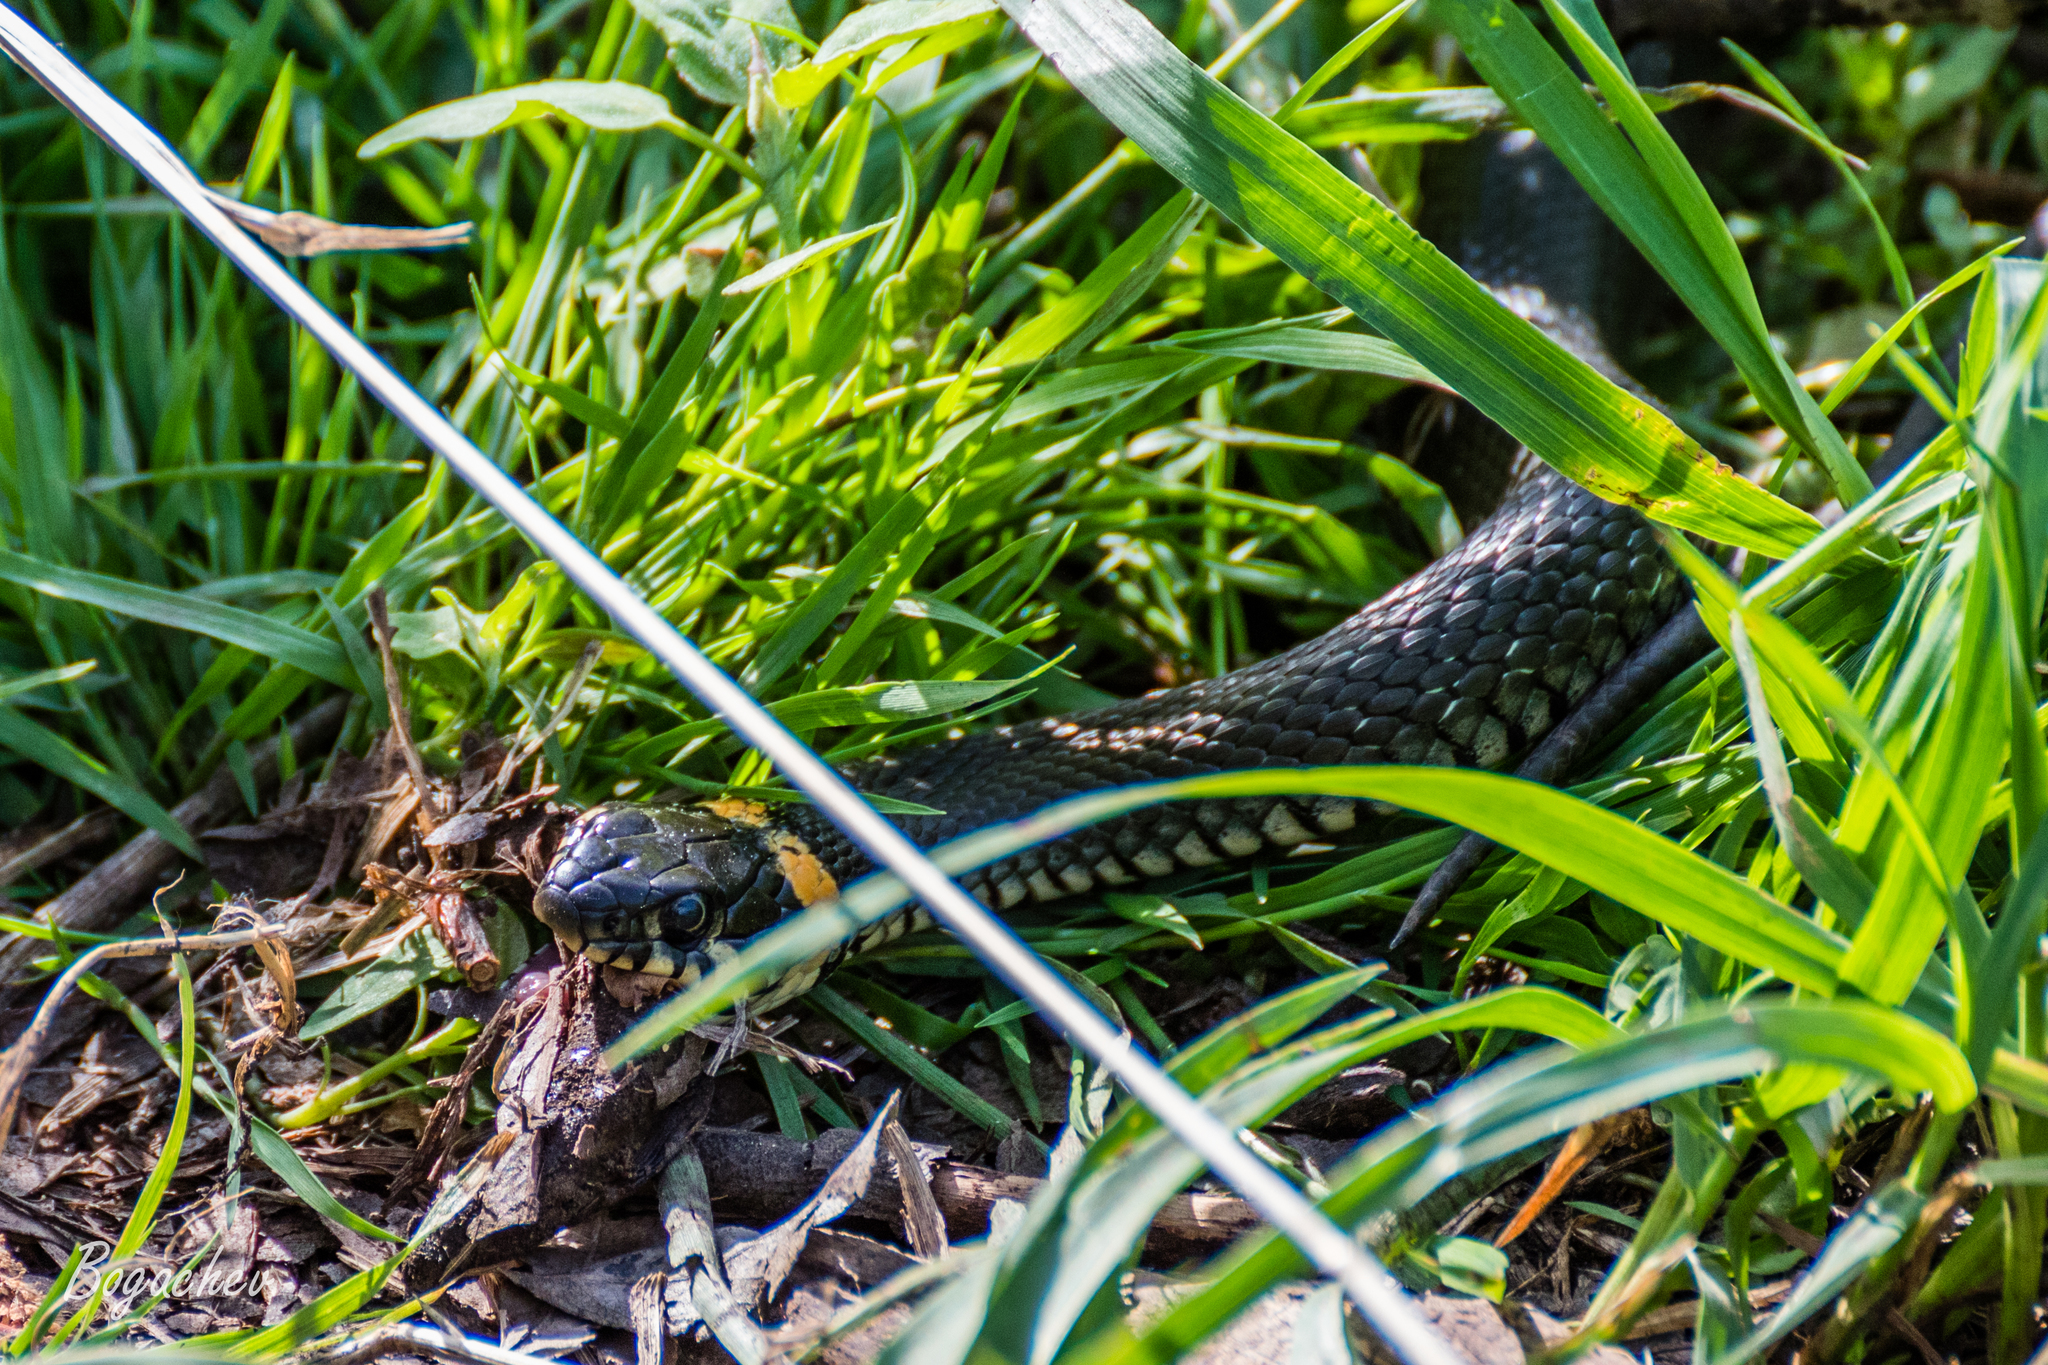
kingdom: Animalia
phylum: Chordata
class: Squamata
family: Colubridae
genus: Natrix
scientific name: Natrix natrix
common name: Grass snake
